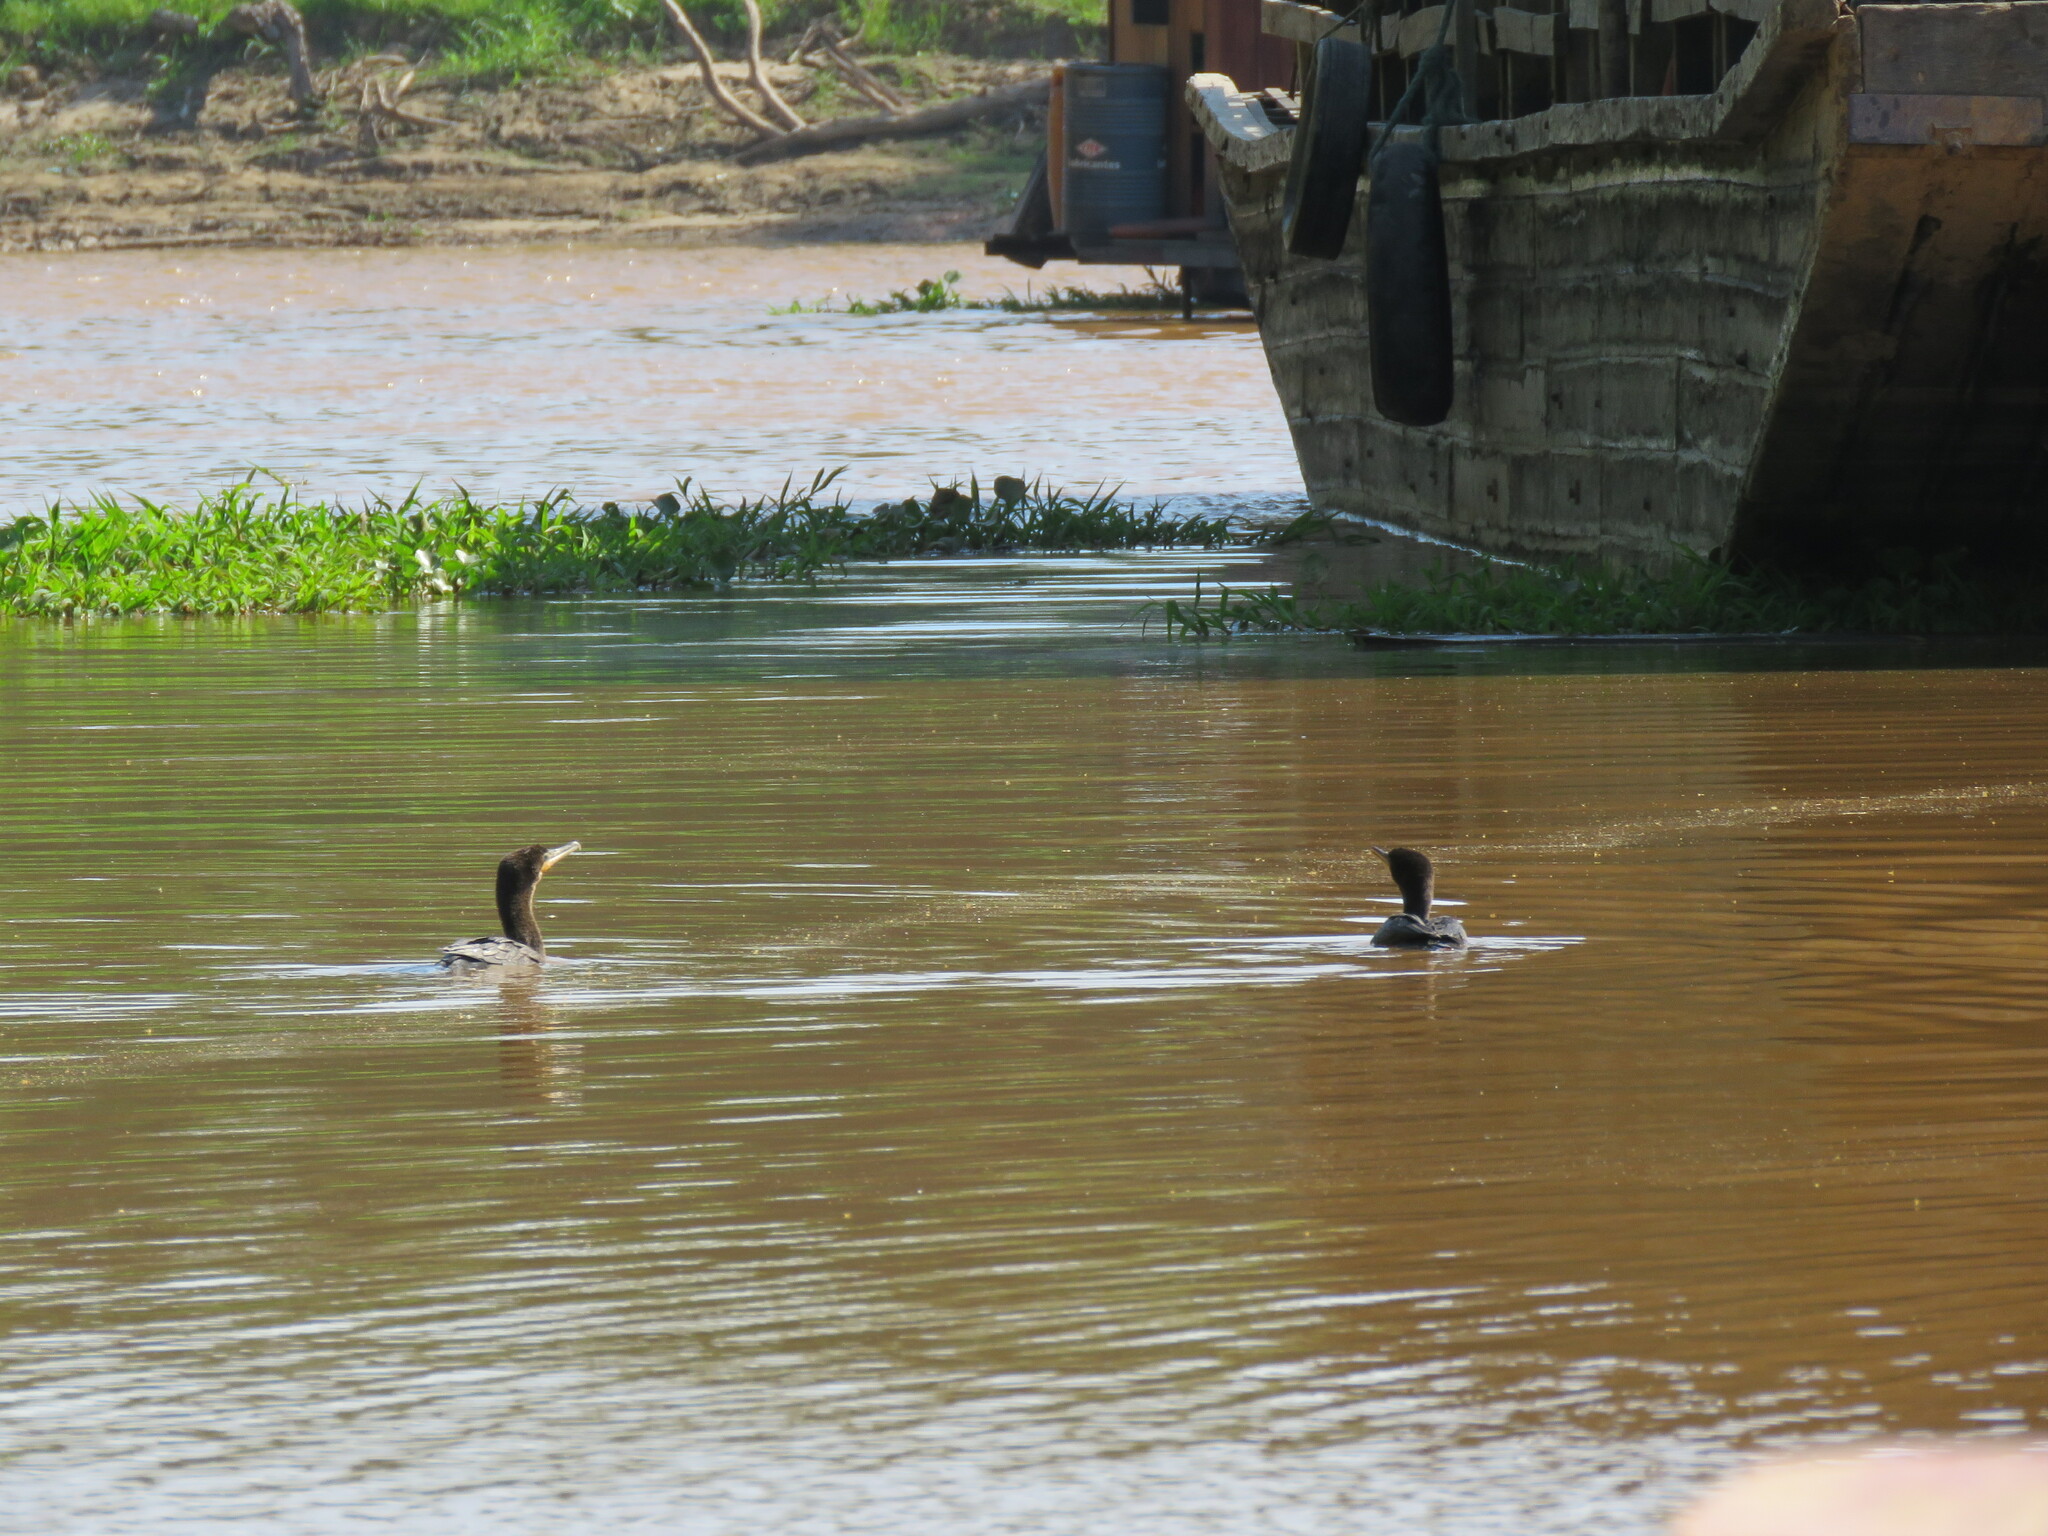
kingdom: Animalia
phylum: Chordata
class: Aves
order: Suliformes
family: Phalacrocoracidae
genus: Phalacrocorax
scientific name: Phalacrocorax brasilianus
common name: Neotropic cormorant
